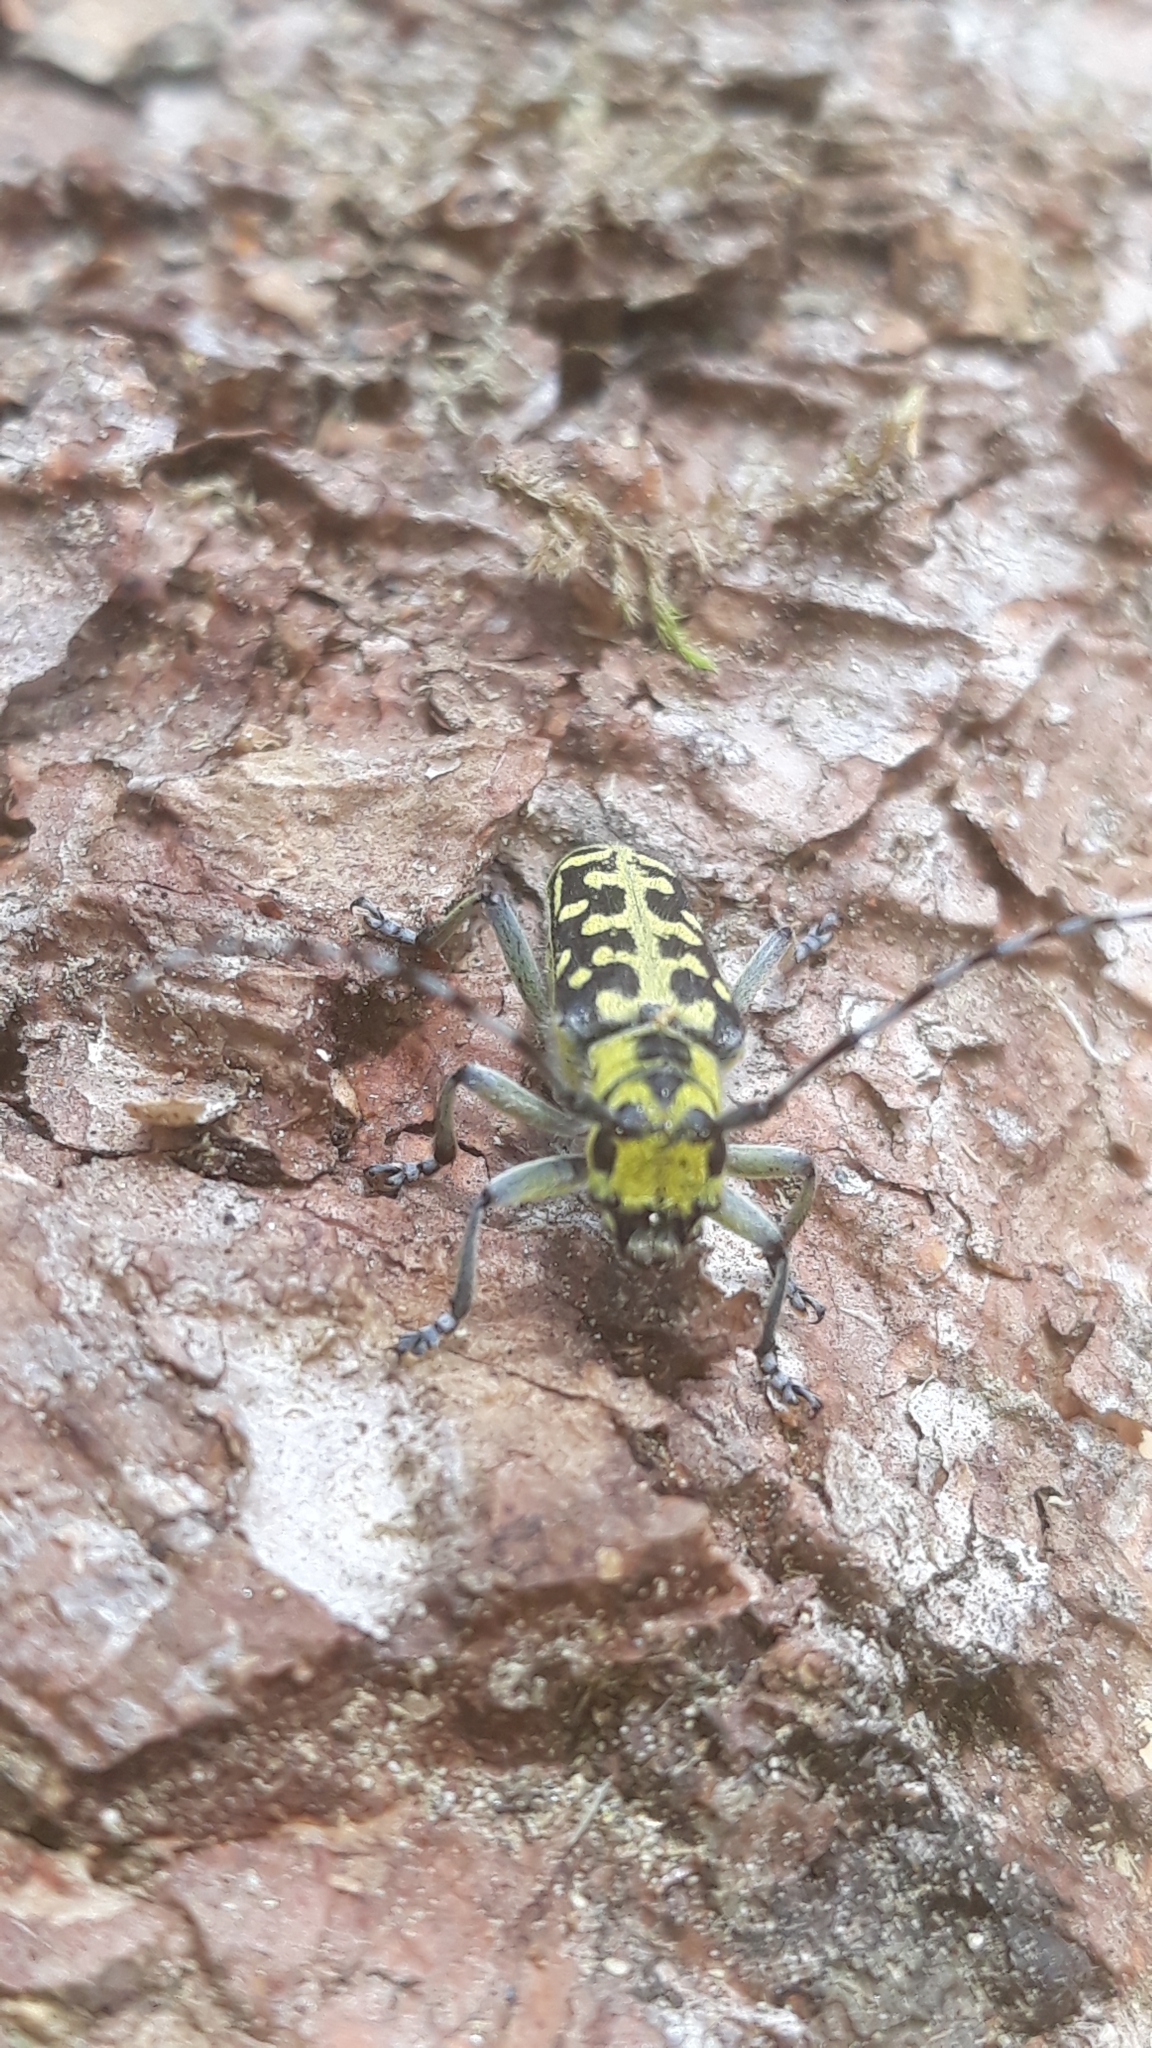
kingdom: Animalia
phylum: Arthropoda
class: Insecta
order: Coleoptera
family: Cerambycidae
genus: Saperda
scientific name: Saperda scalaris
